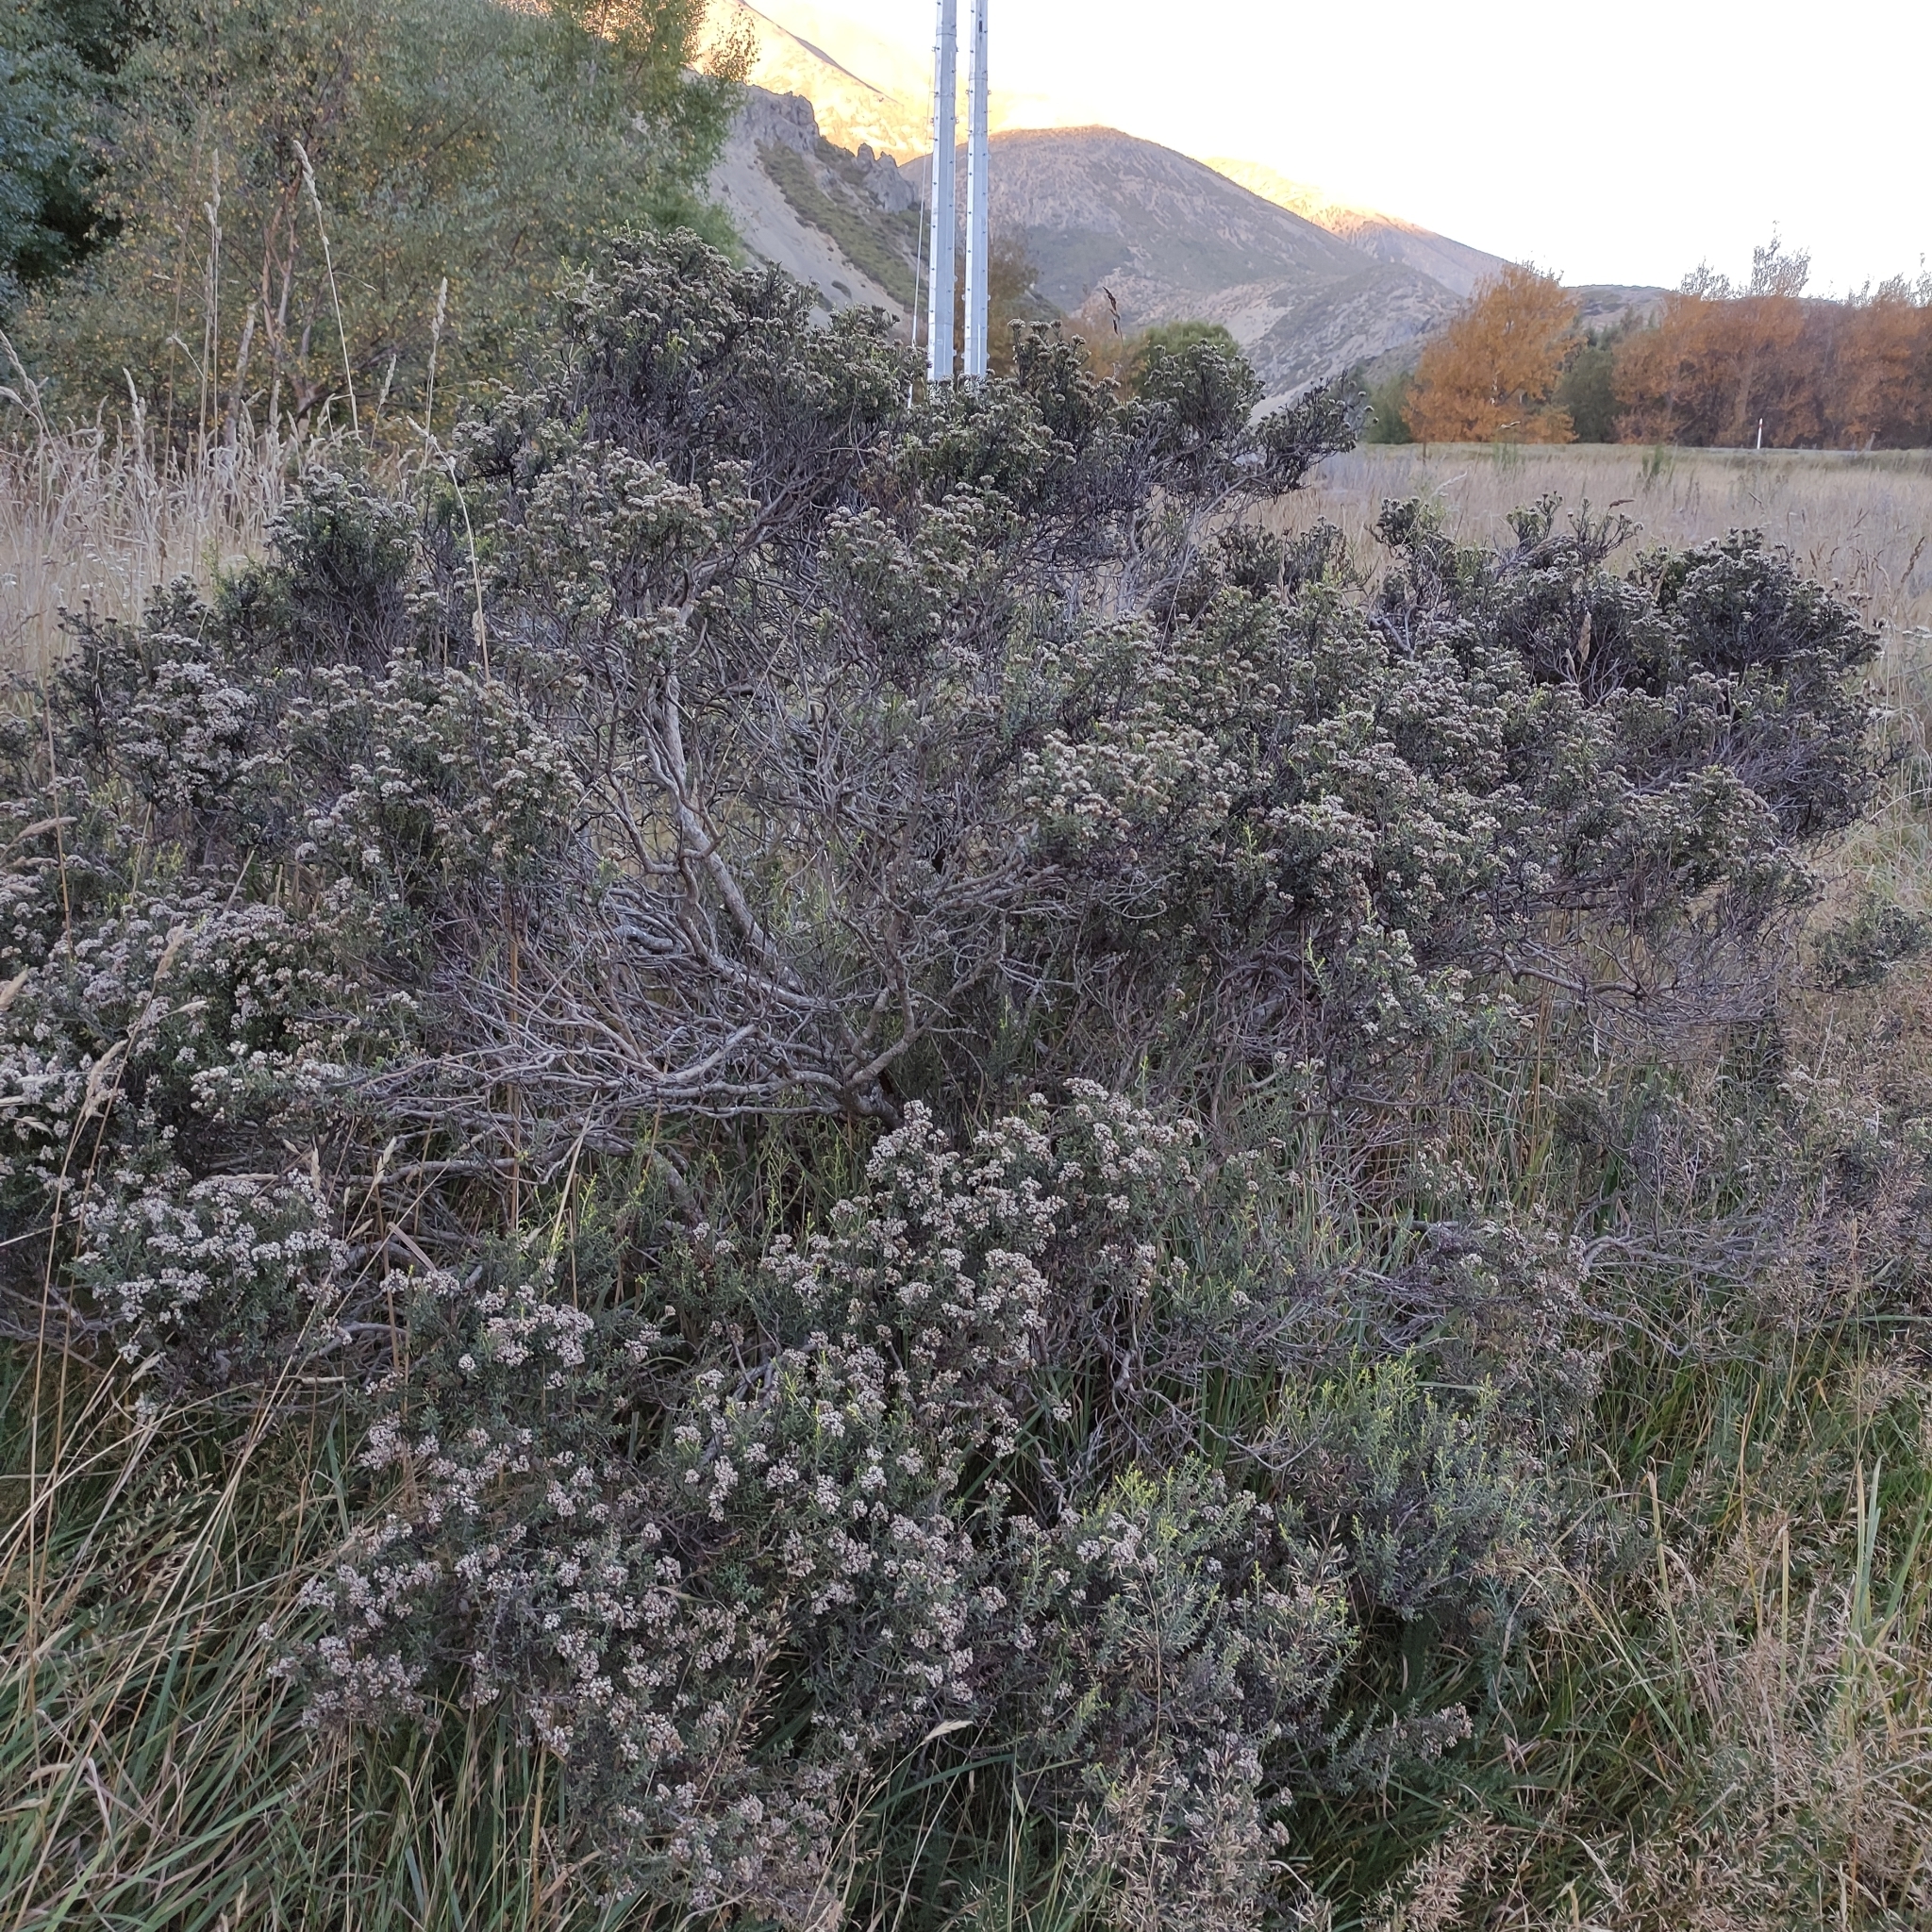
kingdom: Plantae
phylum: Tracheophyta
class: Magnoliopsida
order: Asterales
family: Asteraceae
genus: Ozothamnus
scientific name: Ozothamnus leptophyllus
